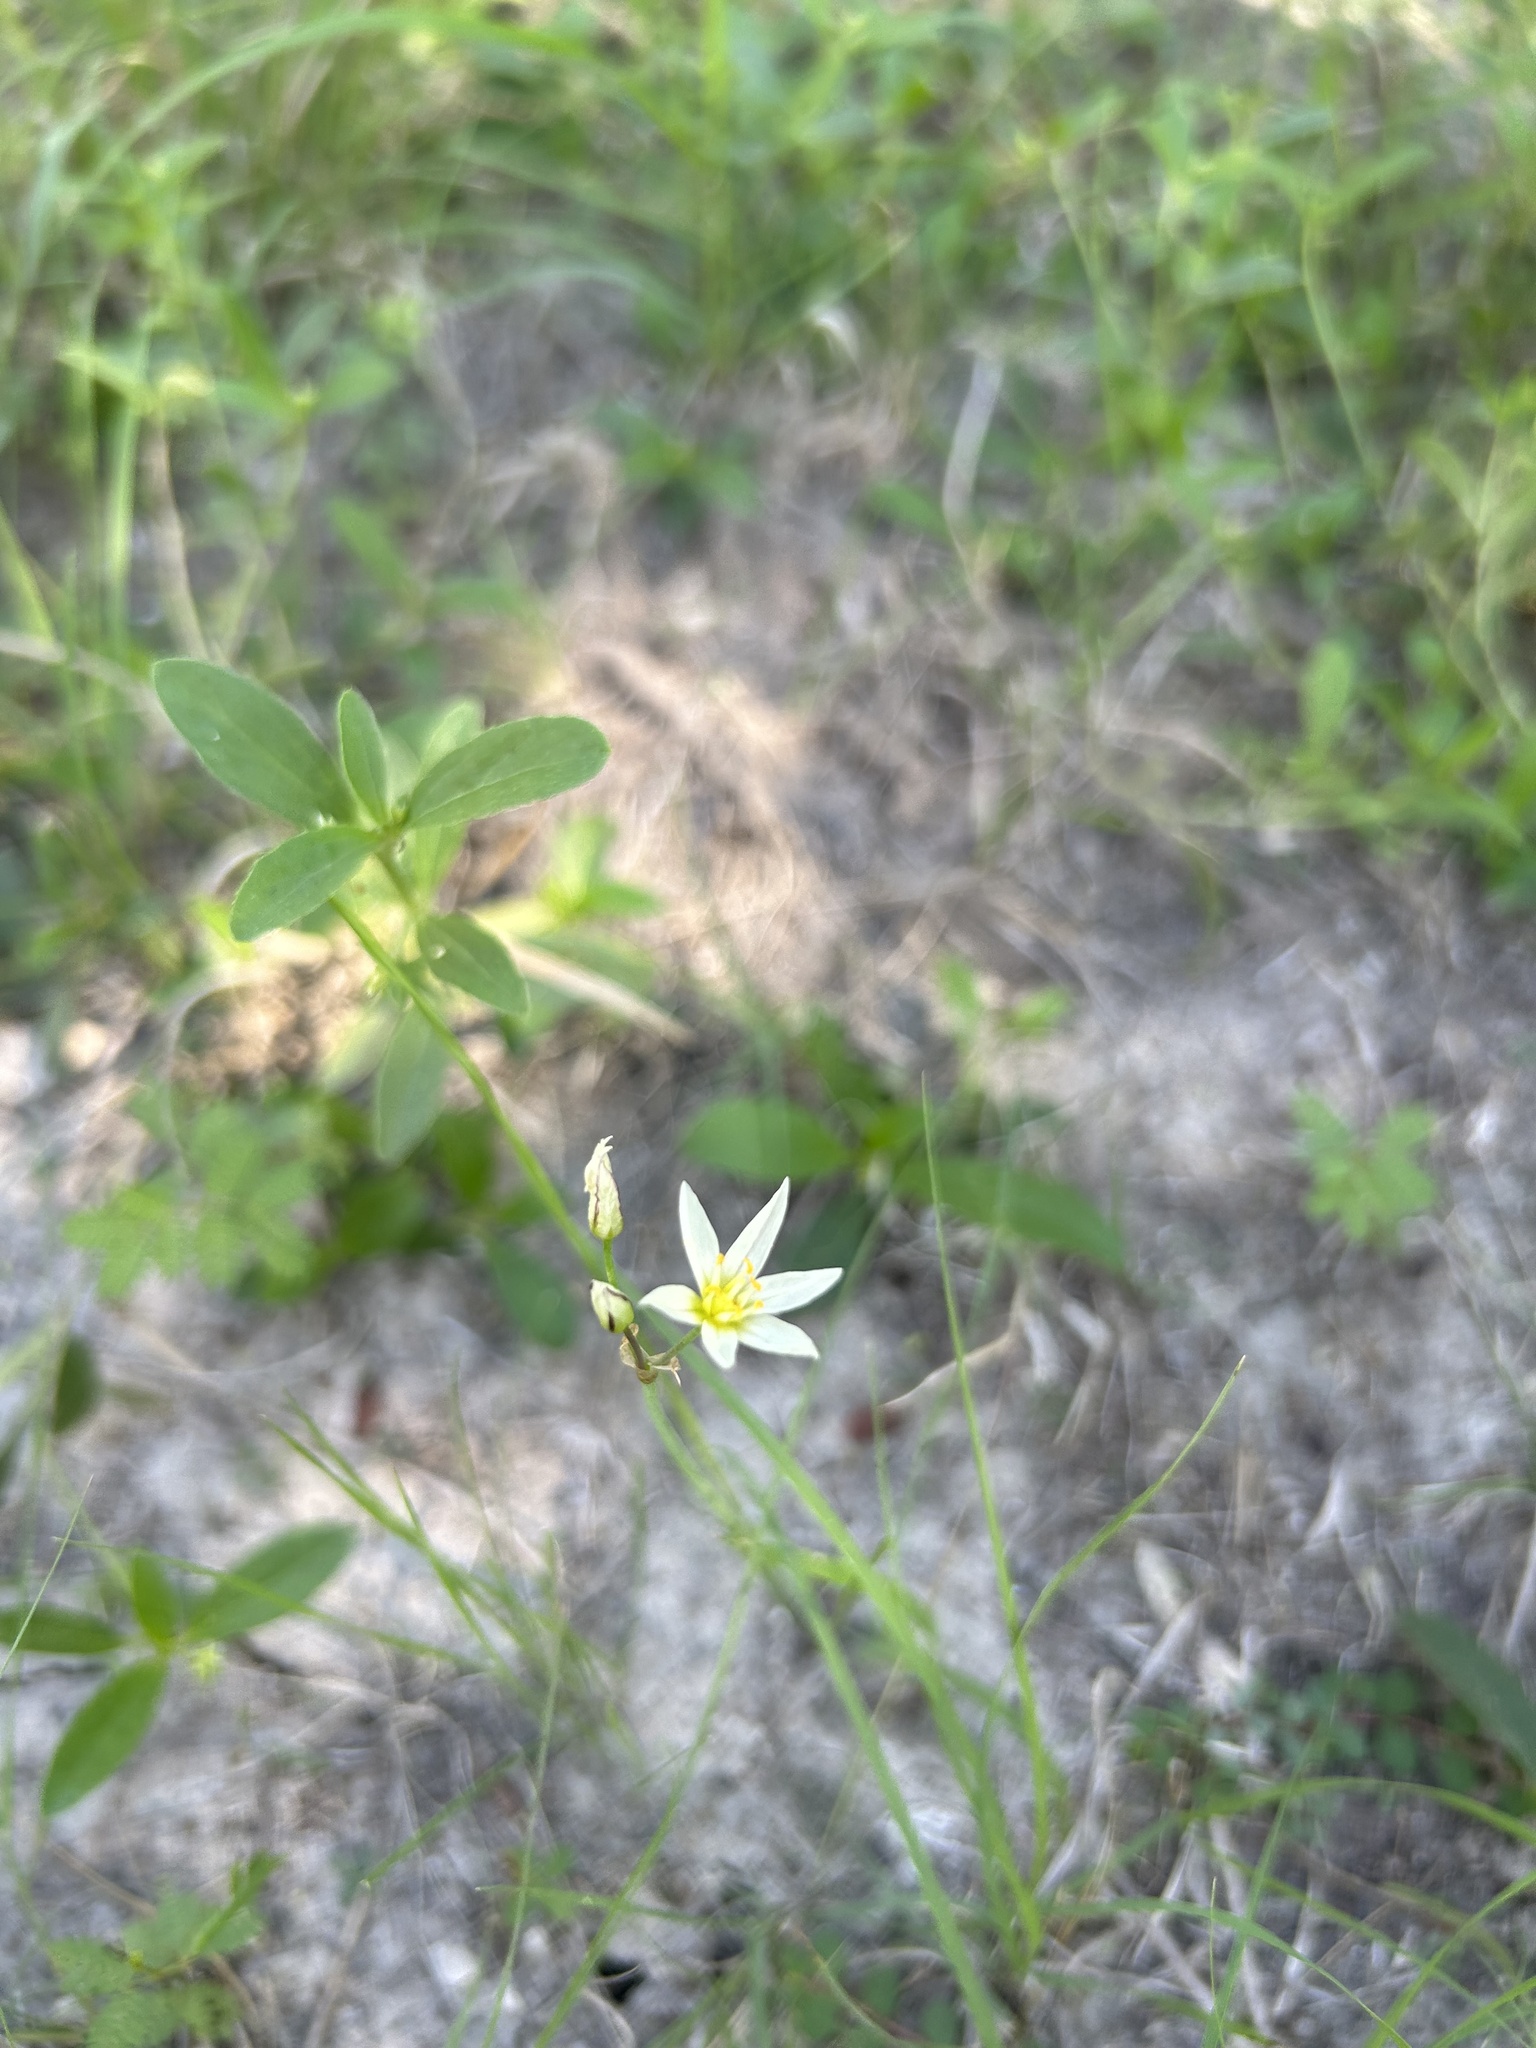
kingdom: Plantae
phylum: Tracheophyta
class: Liliopsida
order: Asparagales
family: Amaryllidaceae
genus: Nothoscordum
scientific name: Nothoscordum bivalve
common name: Crow-poison
